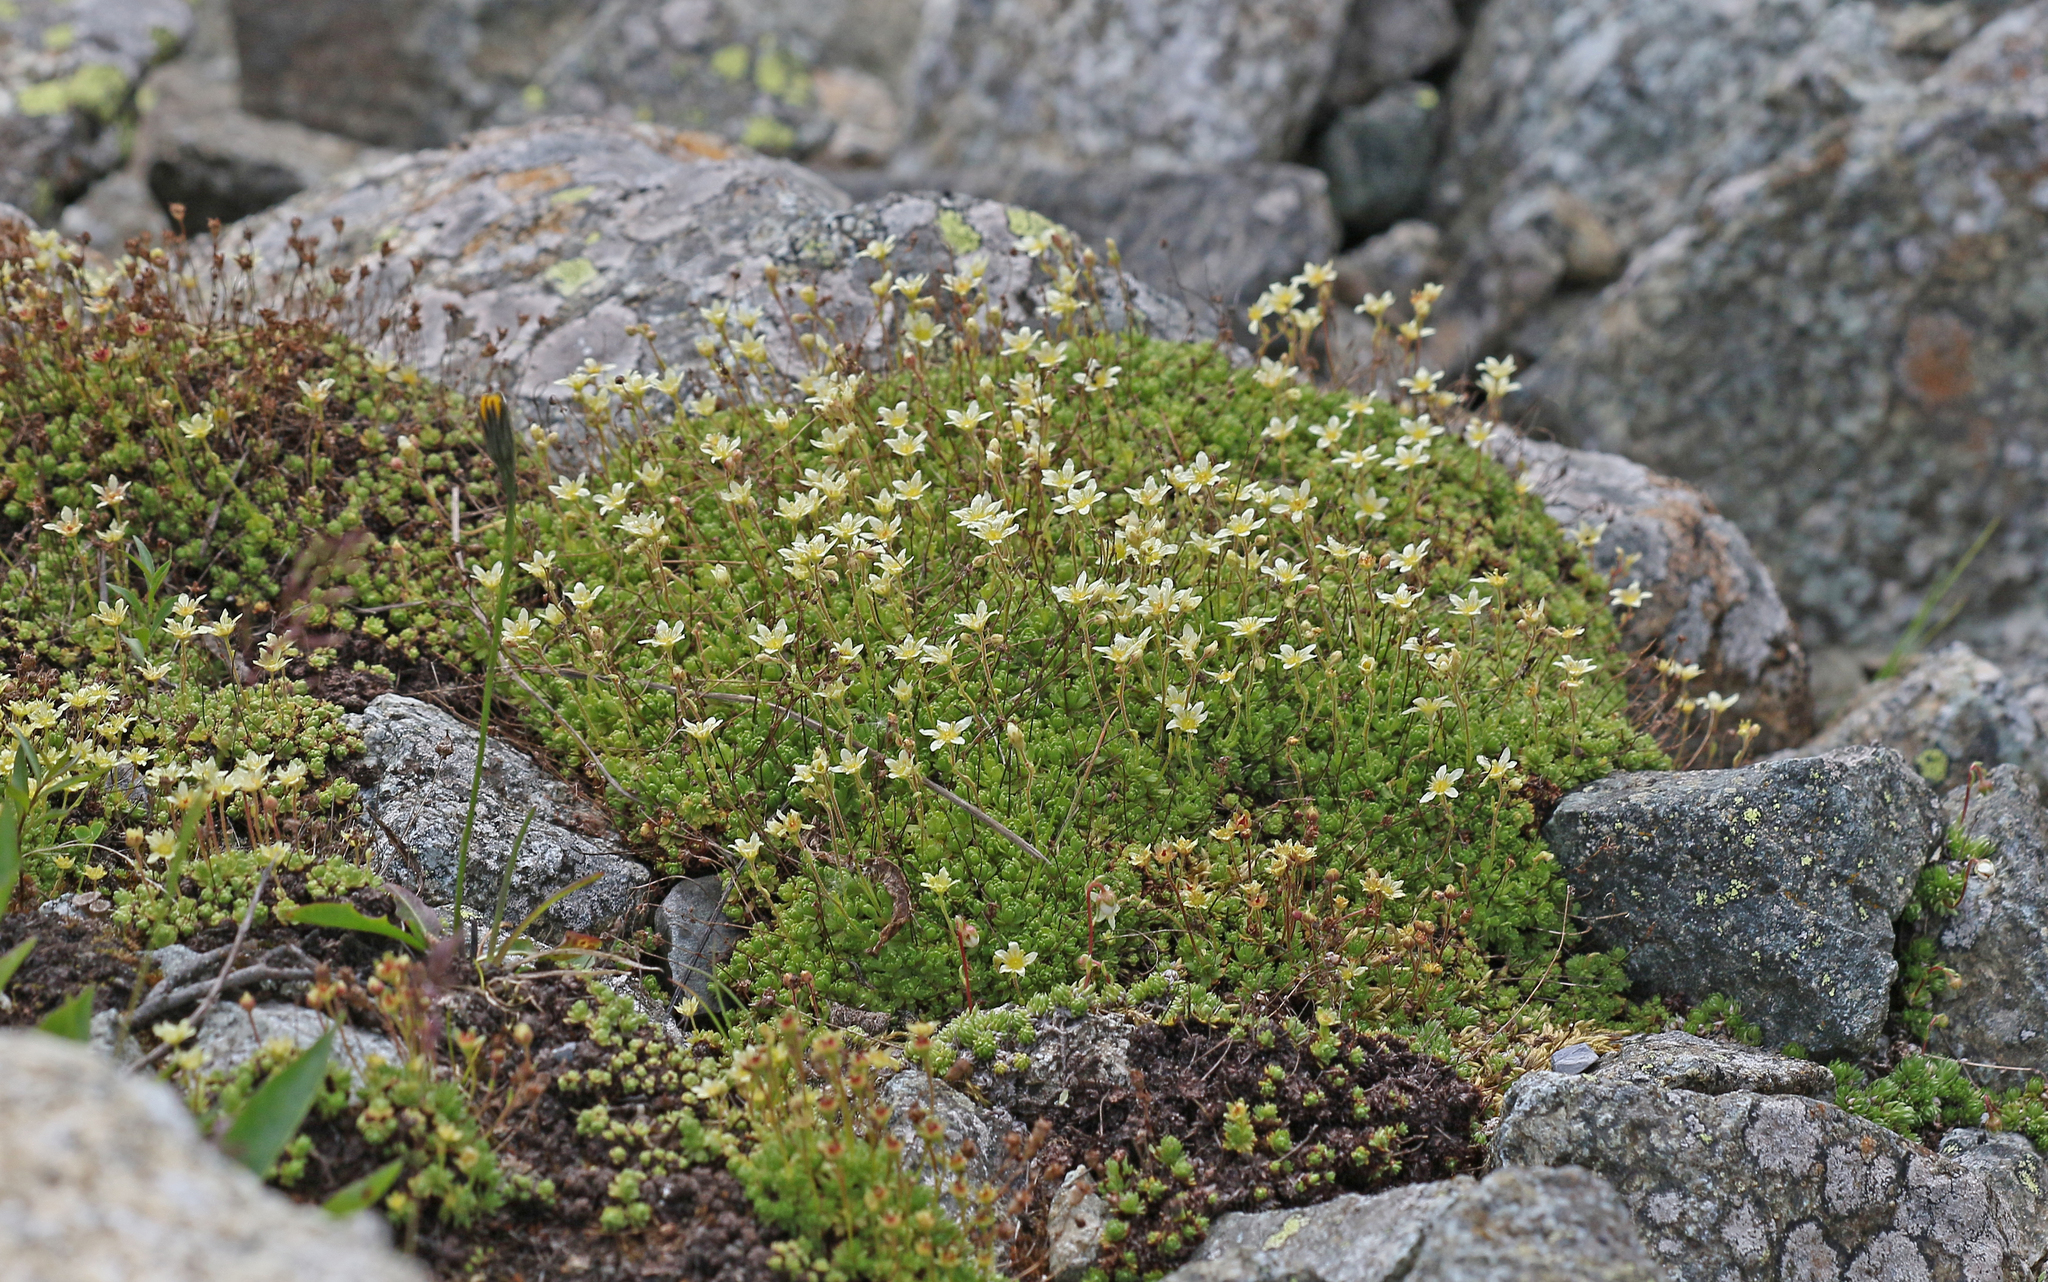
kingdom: Plantae
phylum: Tracheophyta
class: Magnoliopsida
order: Saxifragales
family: Saxifragaceae
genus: Saxifraga
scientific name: Saxifraga bryoides
